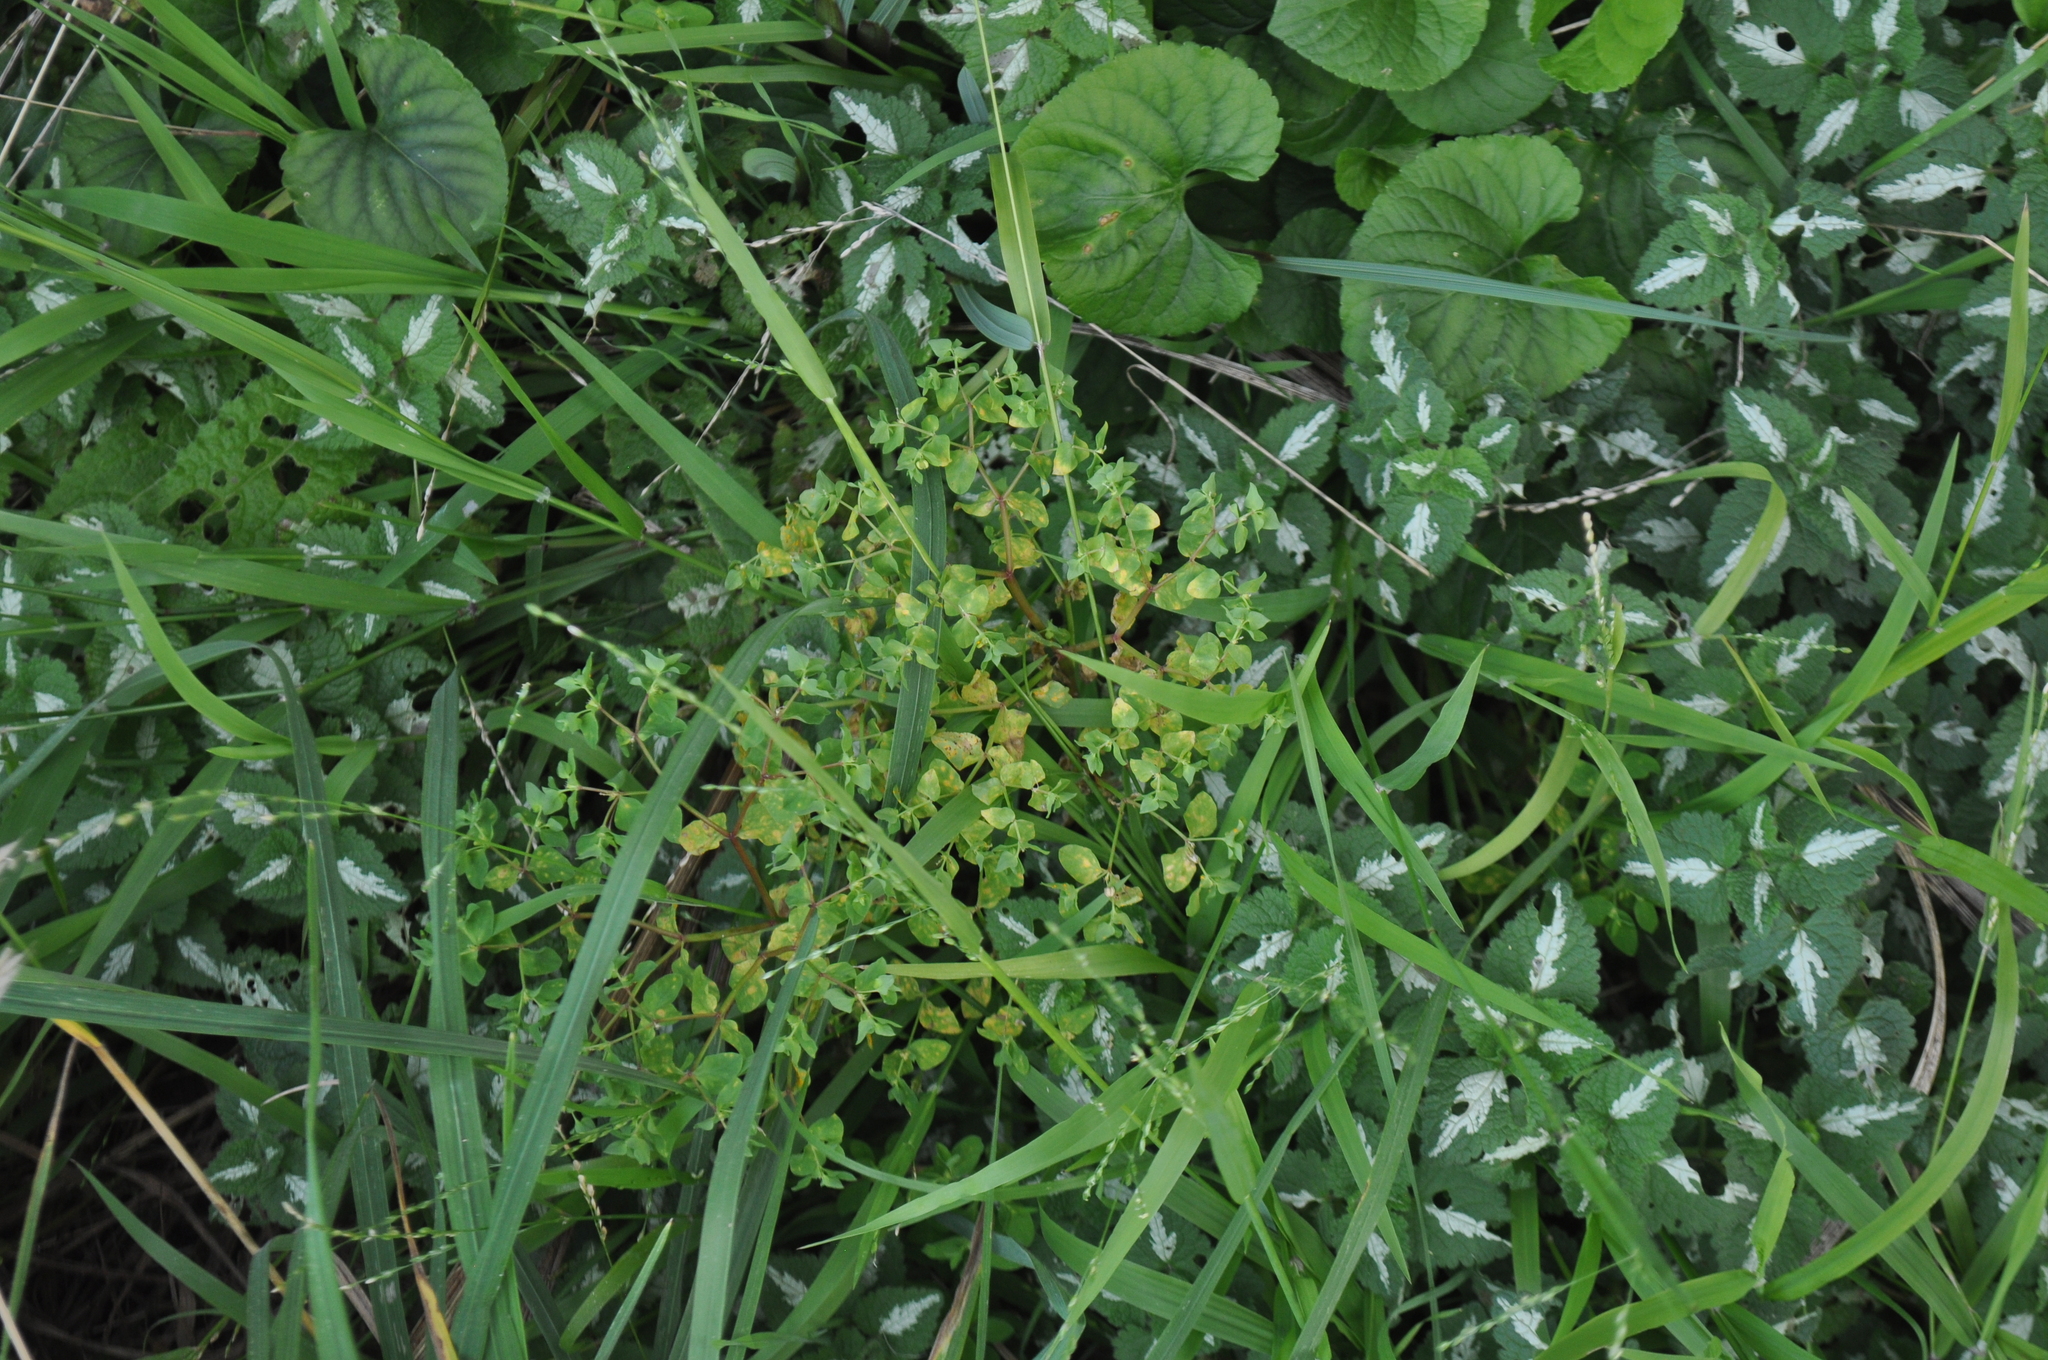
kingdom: Plantae
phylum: Tracheophyta
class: Magnoliopsida
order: Caryophyllales
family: Polygonaceae
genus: Rumex
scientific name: Rumex sagittatus
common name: Climbing dock
